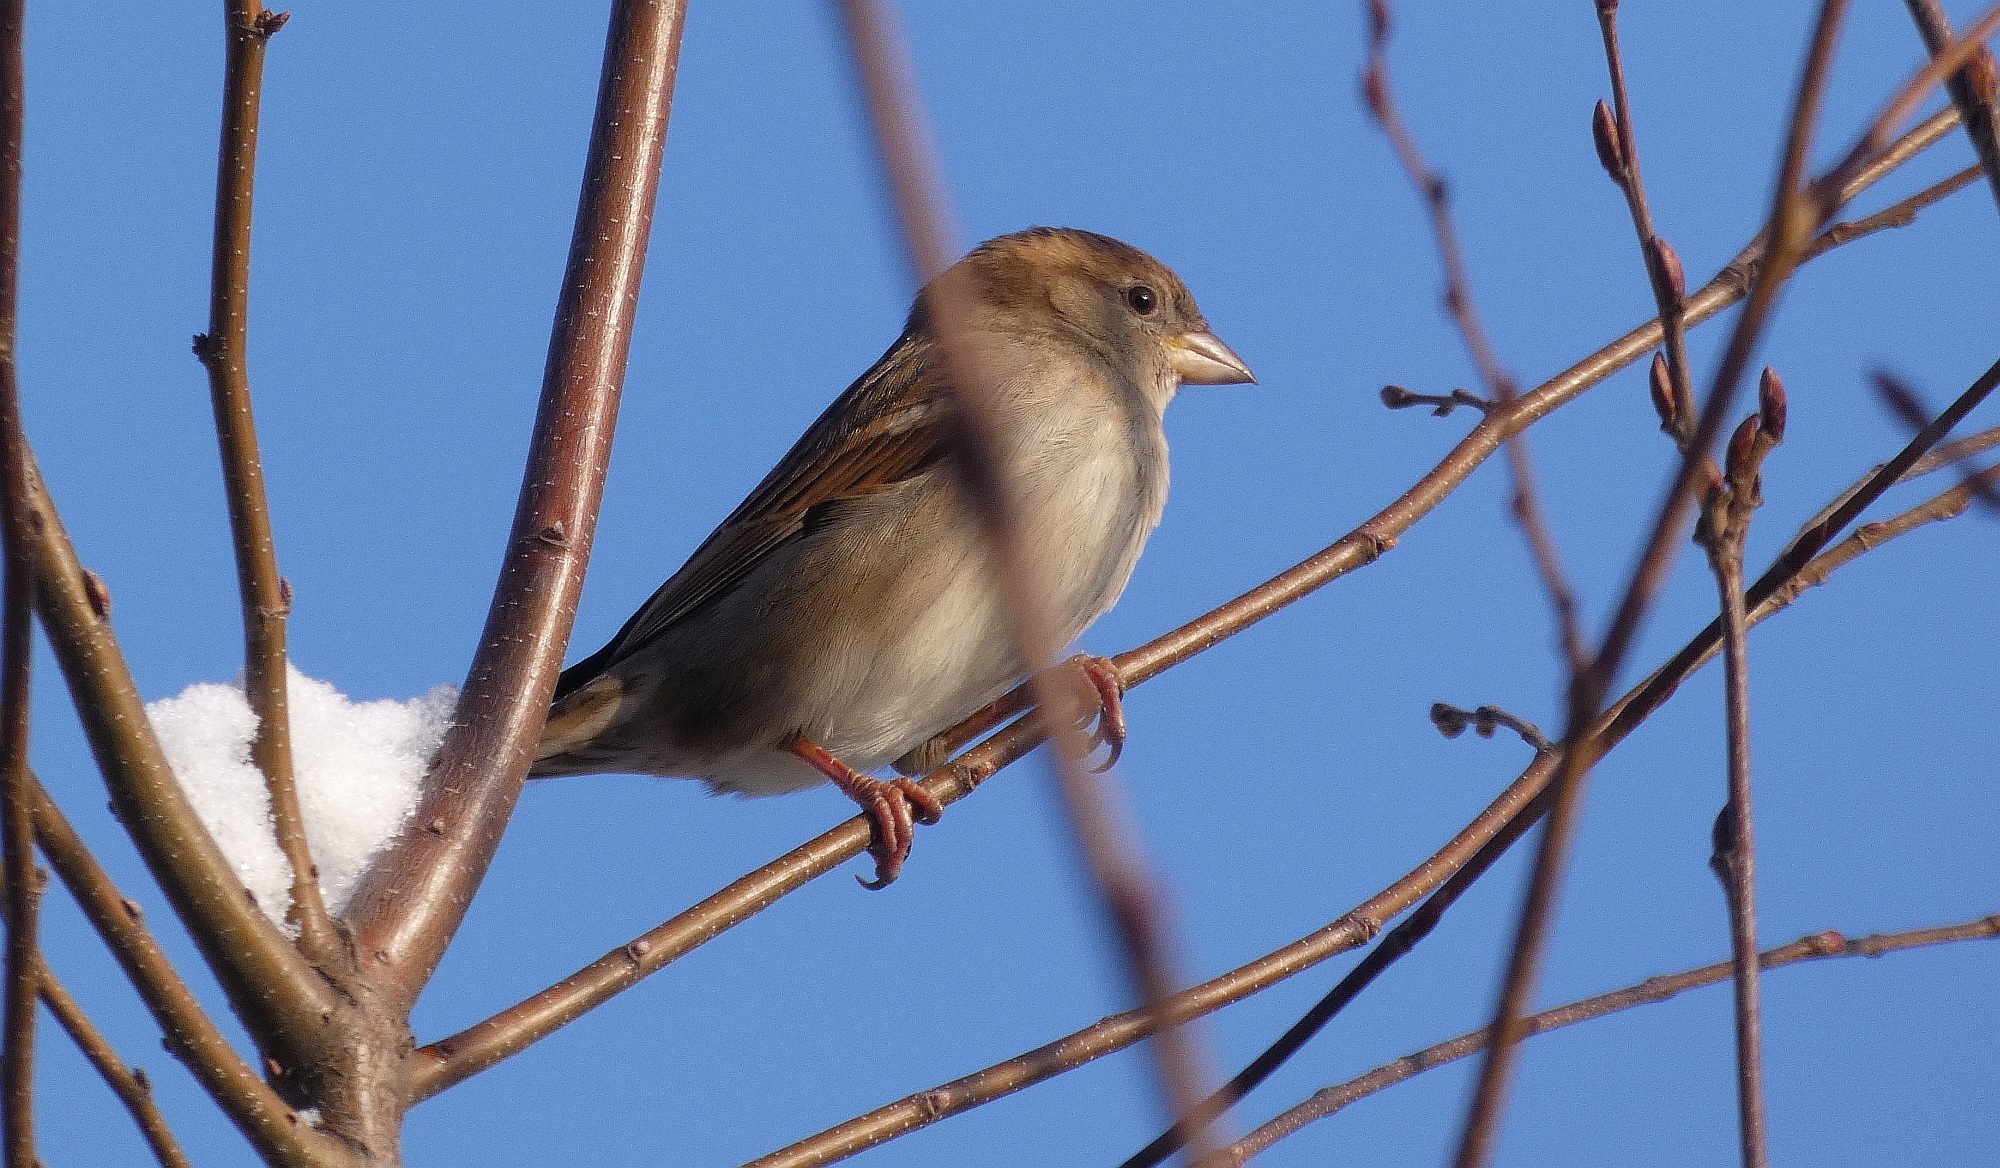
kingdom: Animalia
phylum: Chordata
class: Aves
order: Passeriformes
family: Passeridae
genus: Passer
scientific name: Passer domesticus
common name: House sparrow
